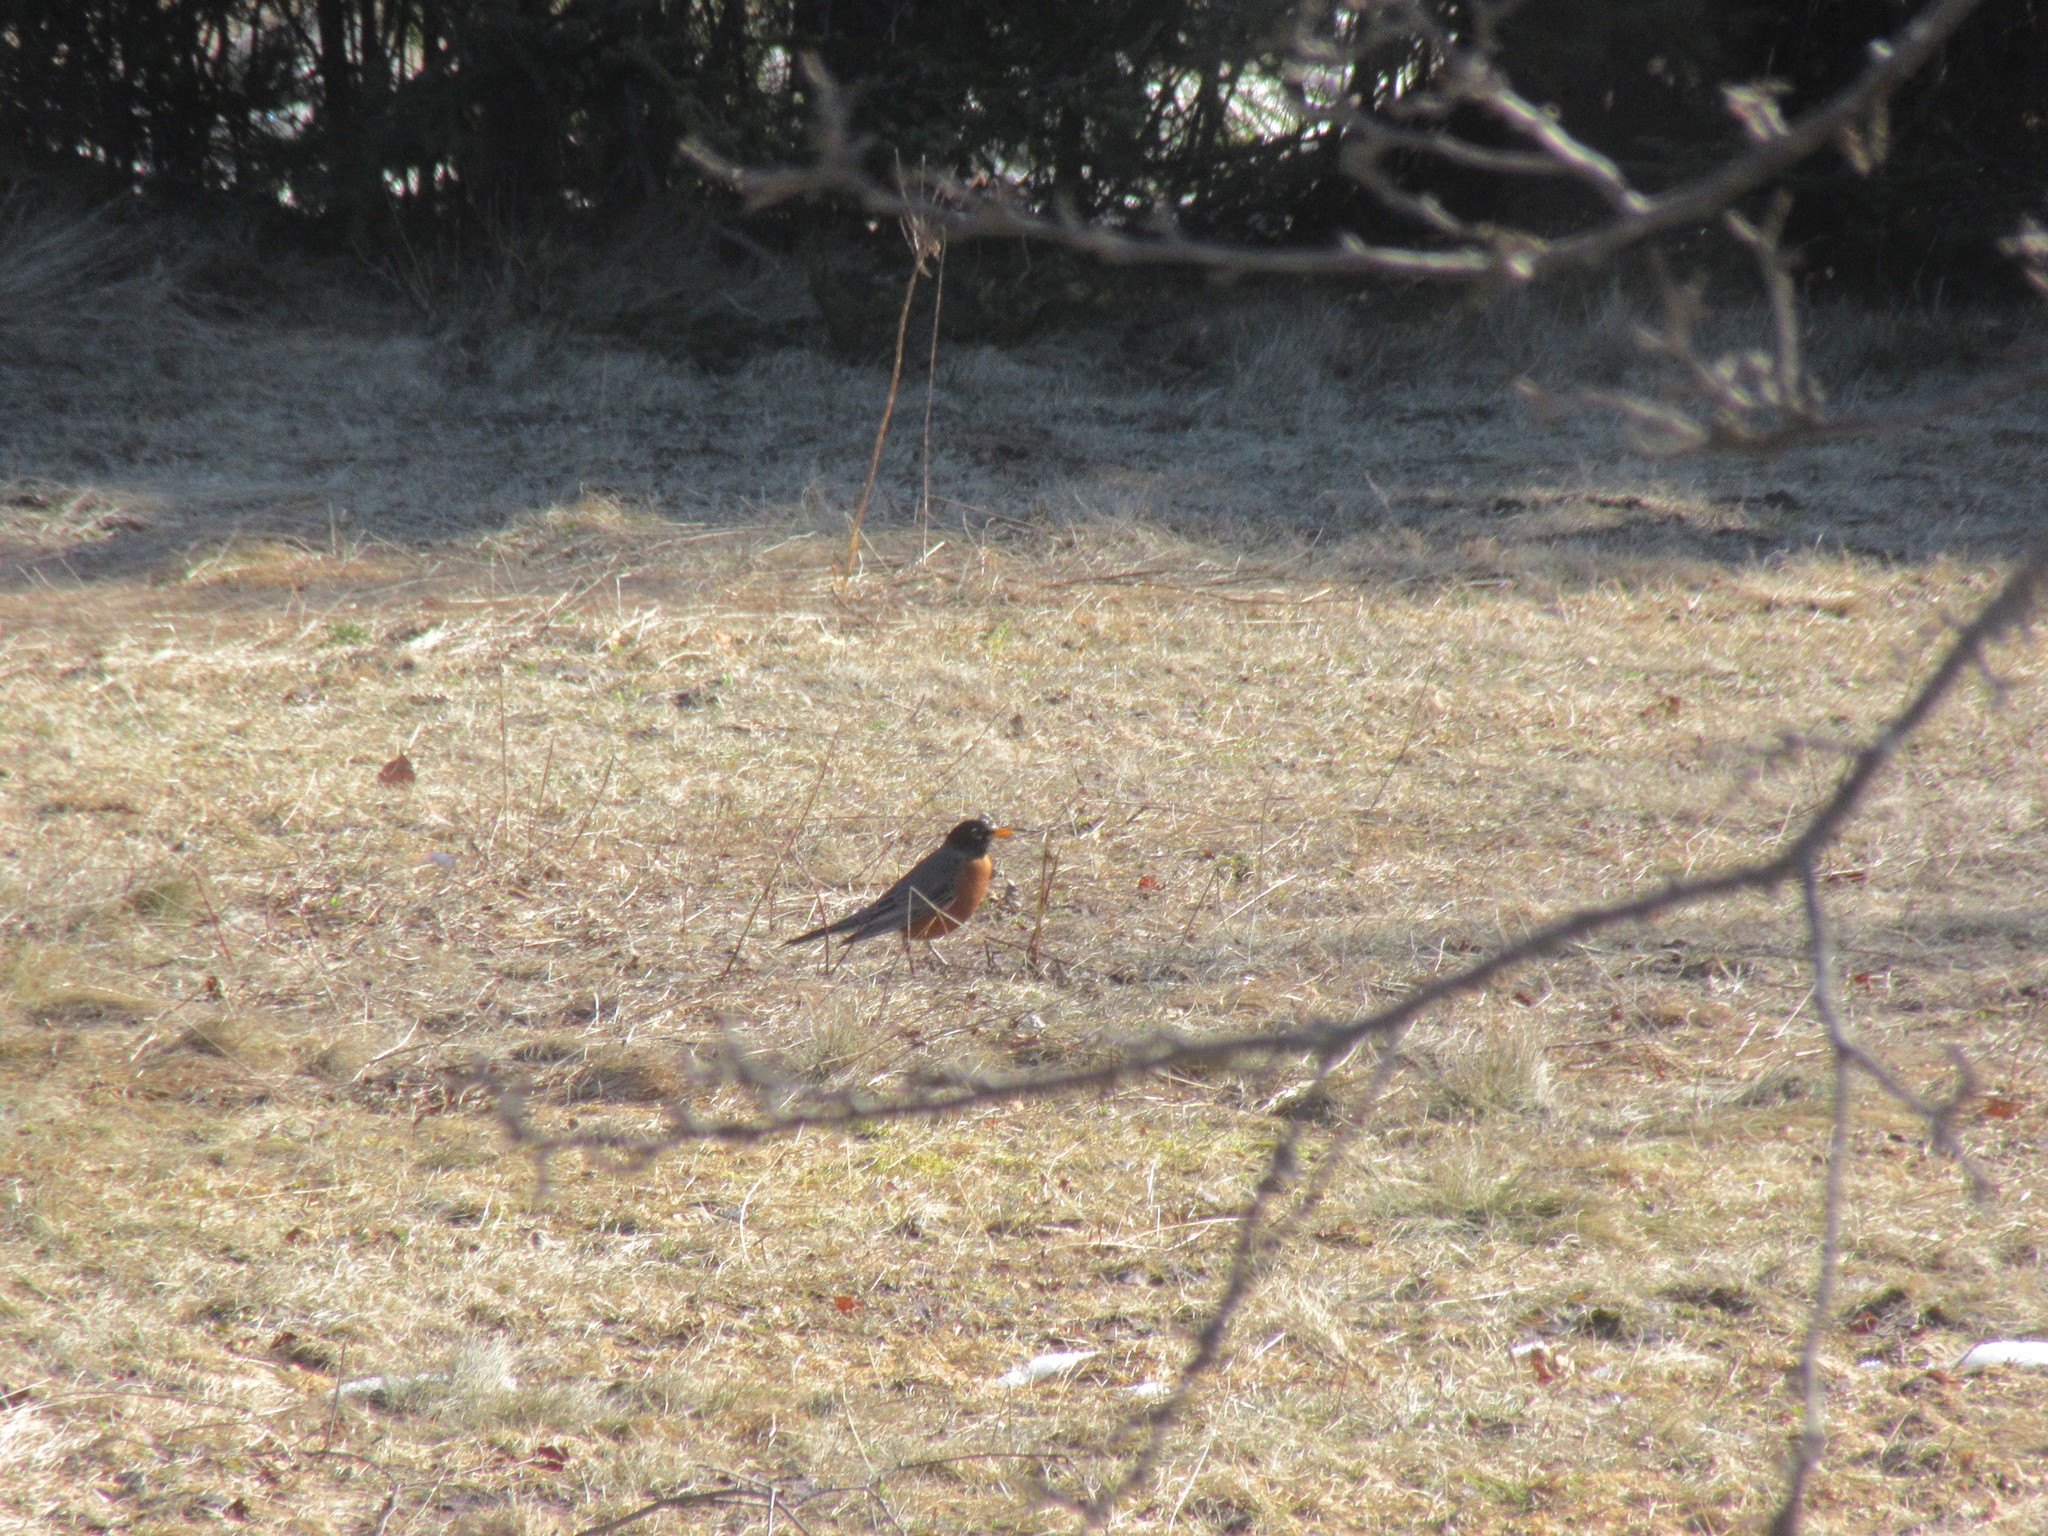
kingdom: Animalia
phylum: Chordata
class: Aves
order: Passeriformes
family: Turdidae
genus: Turdus
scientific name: Turdus migratorius
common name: American robin
